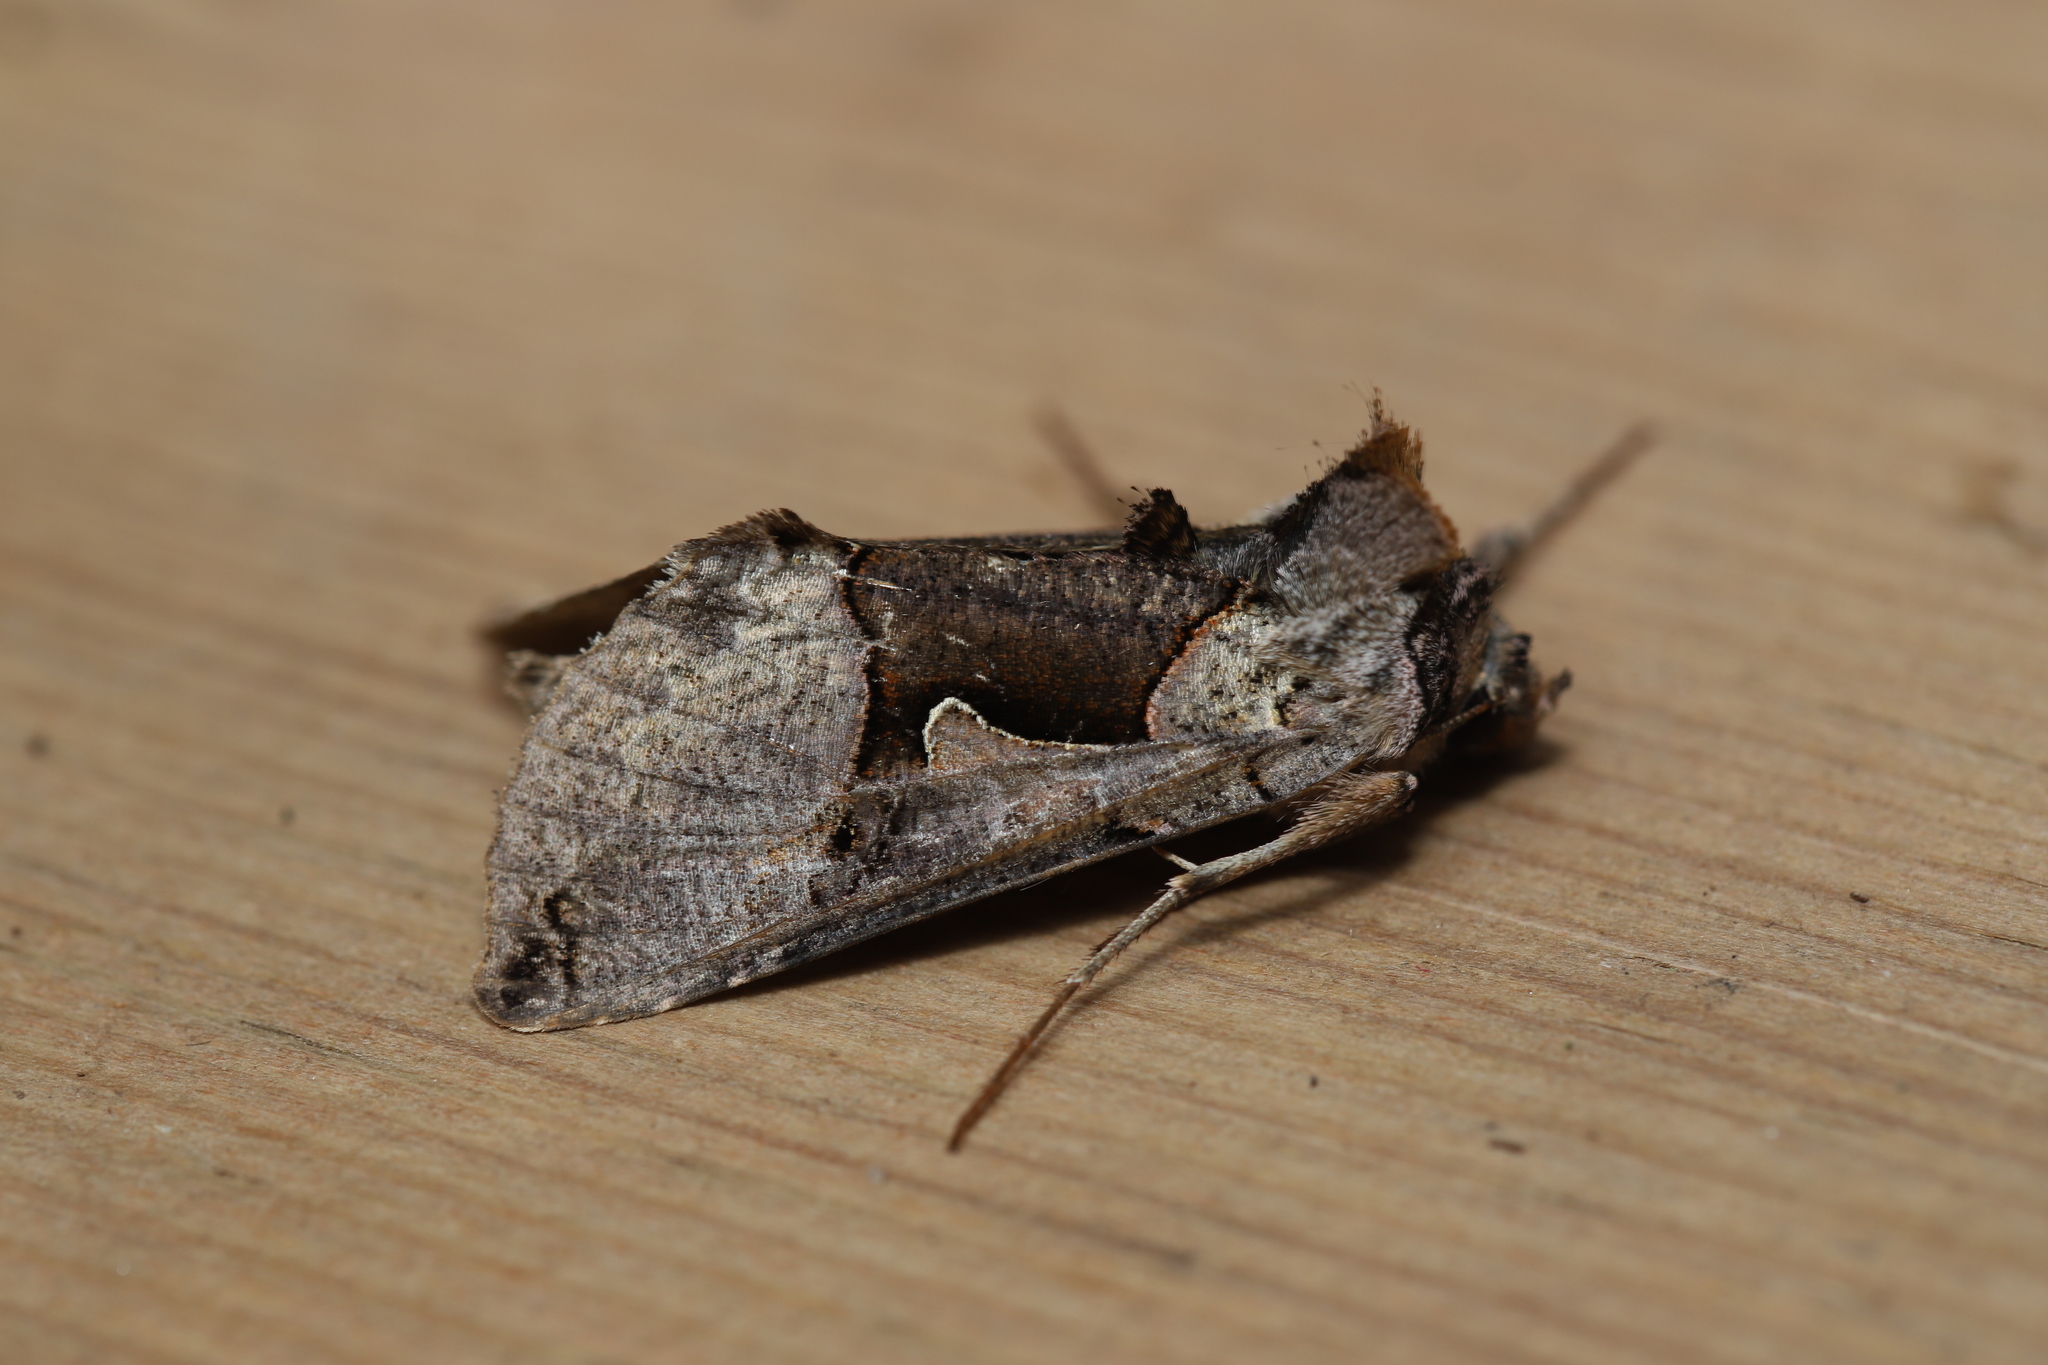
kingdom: Animalia
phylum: Arthropoda
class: Insecta
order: Lepidoptera
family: Noctuidae
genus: Autographa
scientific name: Autographa ampla
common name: Large looper moth
